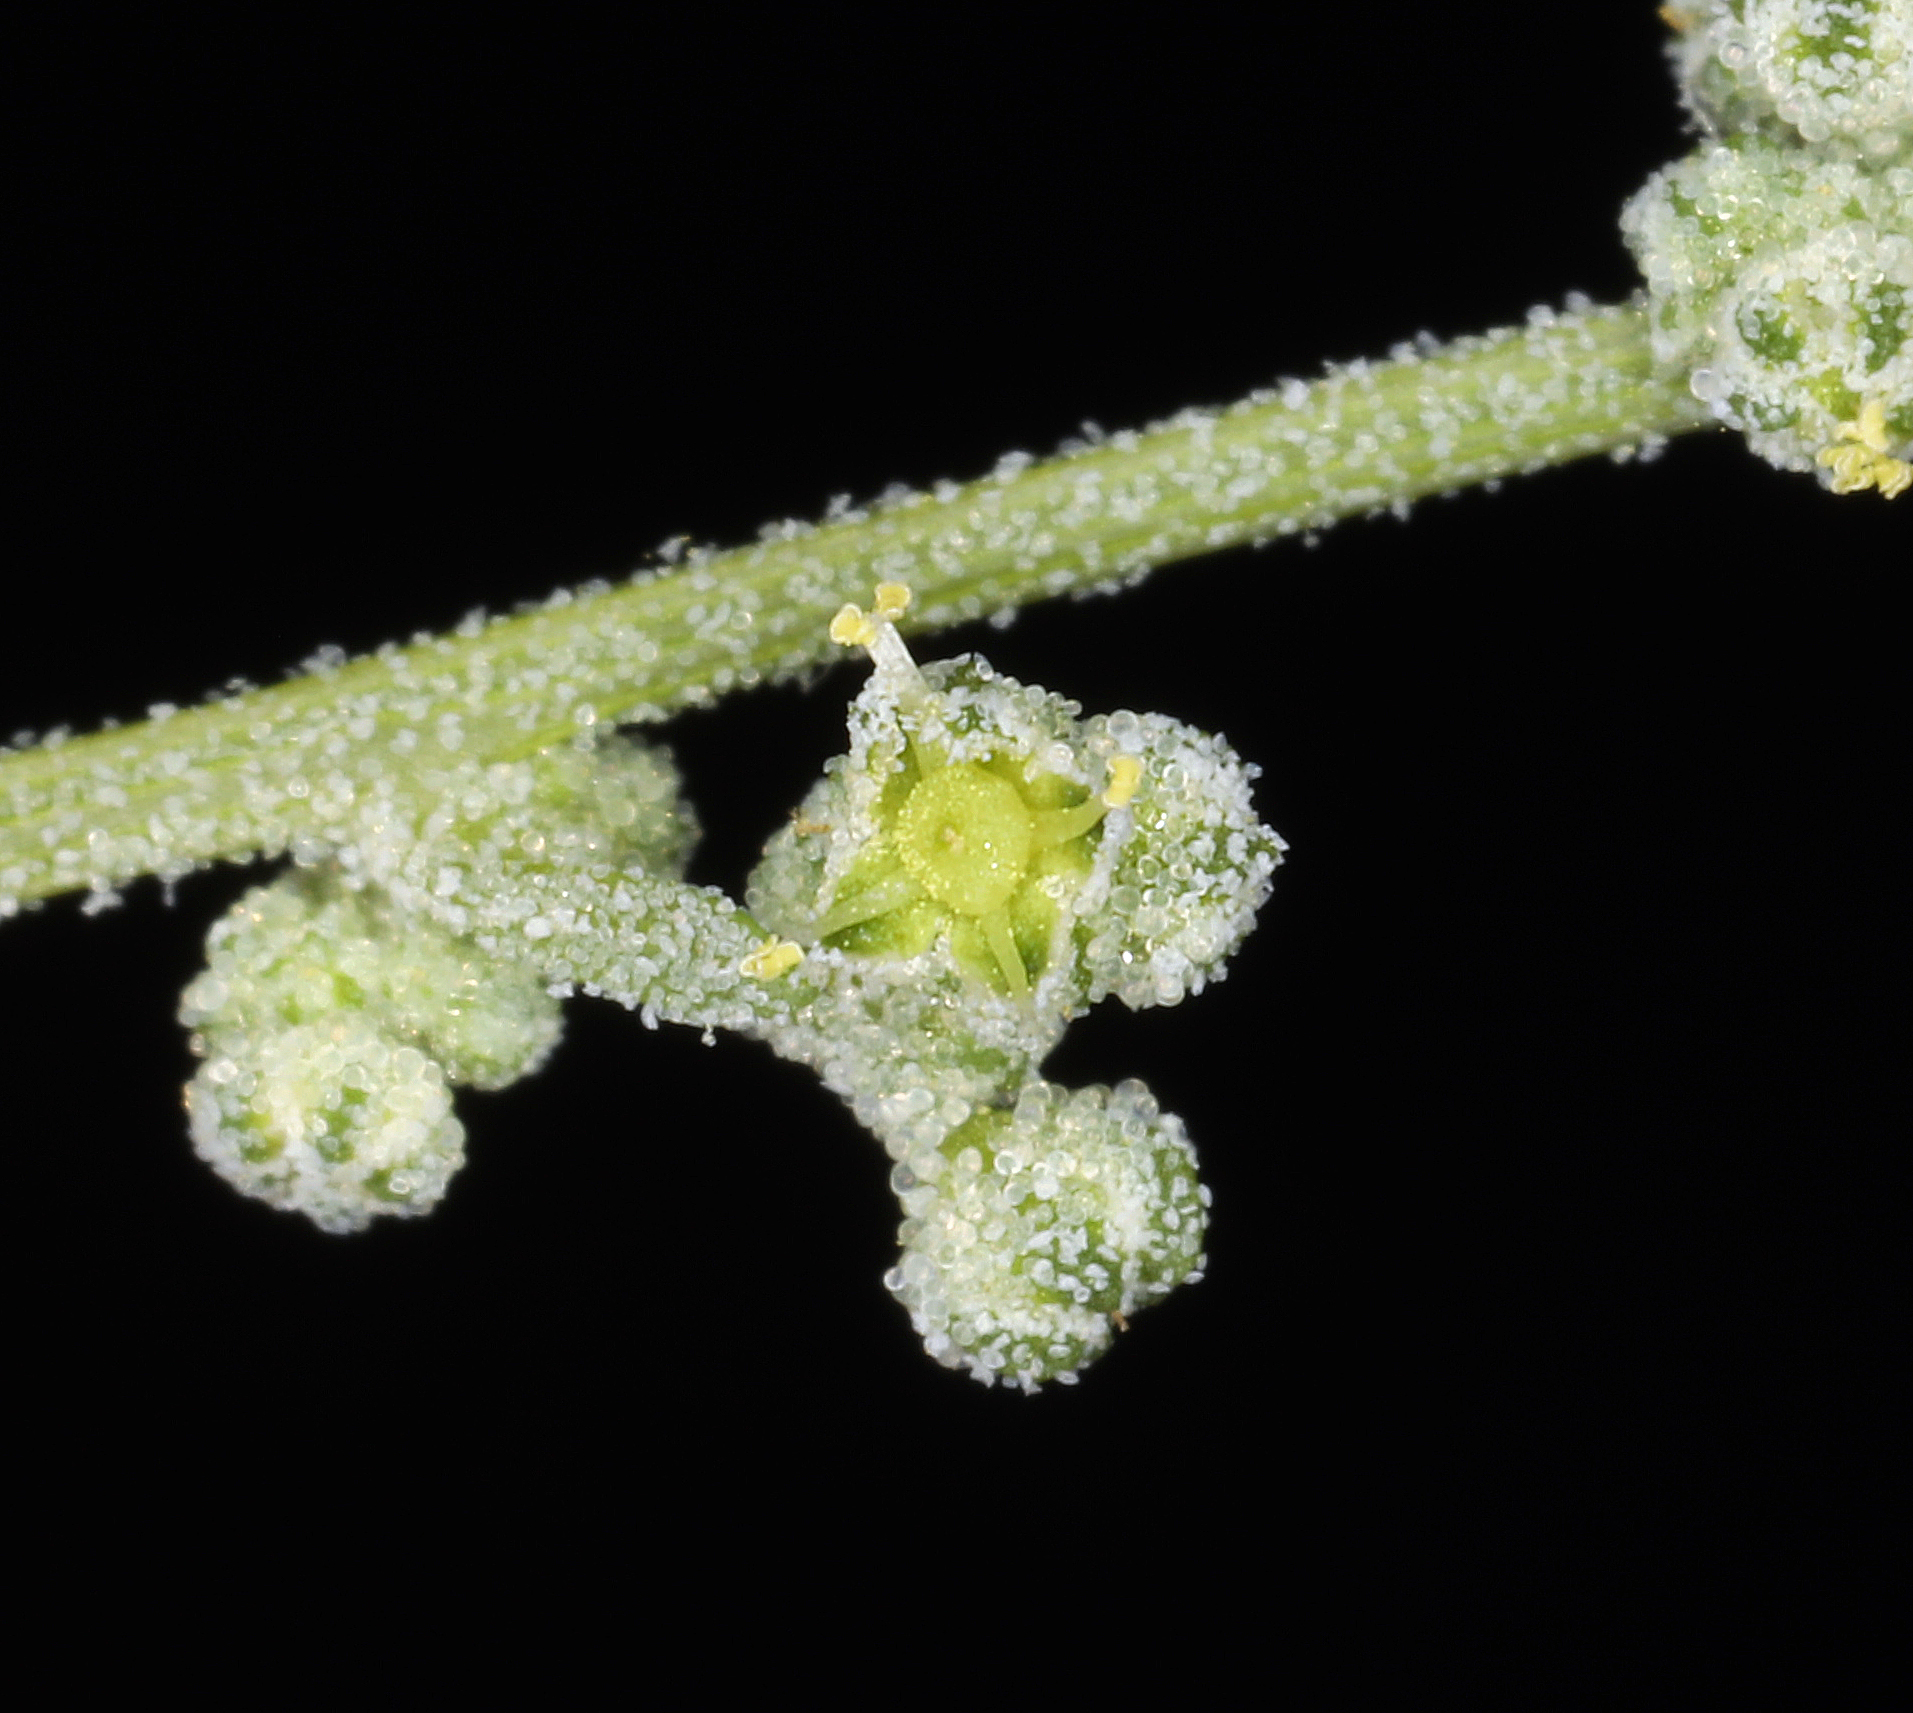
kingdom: Plantae
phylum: Tracheophyta
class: Magnoliopsida
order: Caryophyllales
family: Amaranthaceae
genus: Chenopodium
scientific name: Chenopodium fremontii
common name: Fremont's goosefoot
